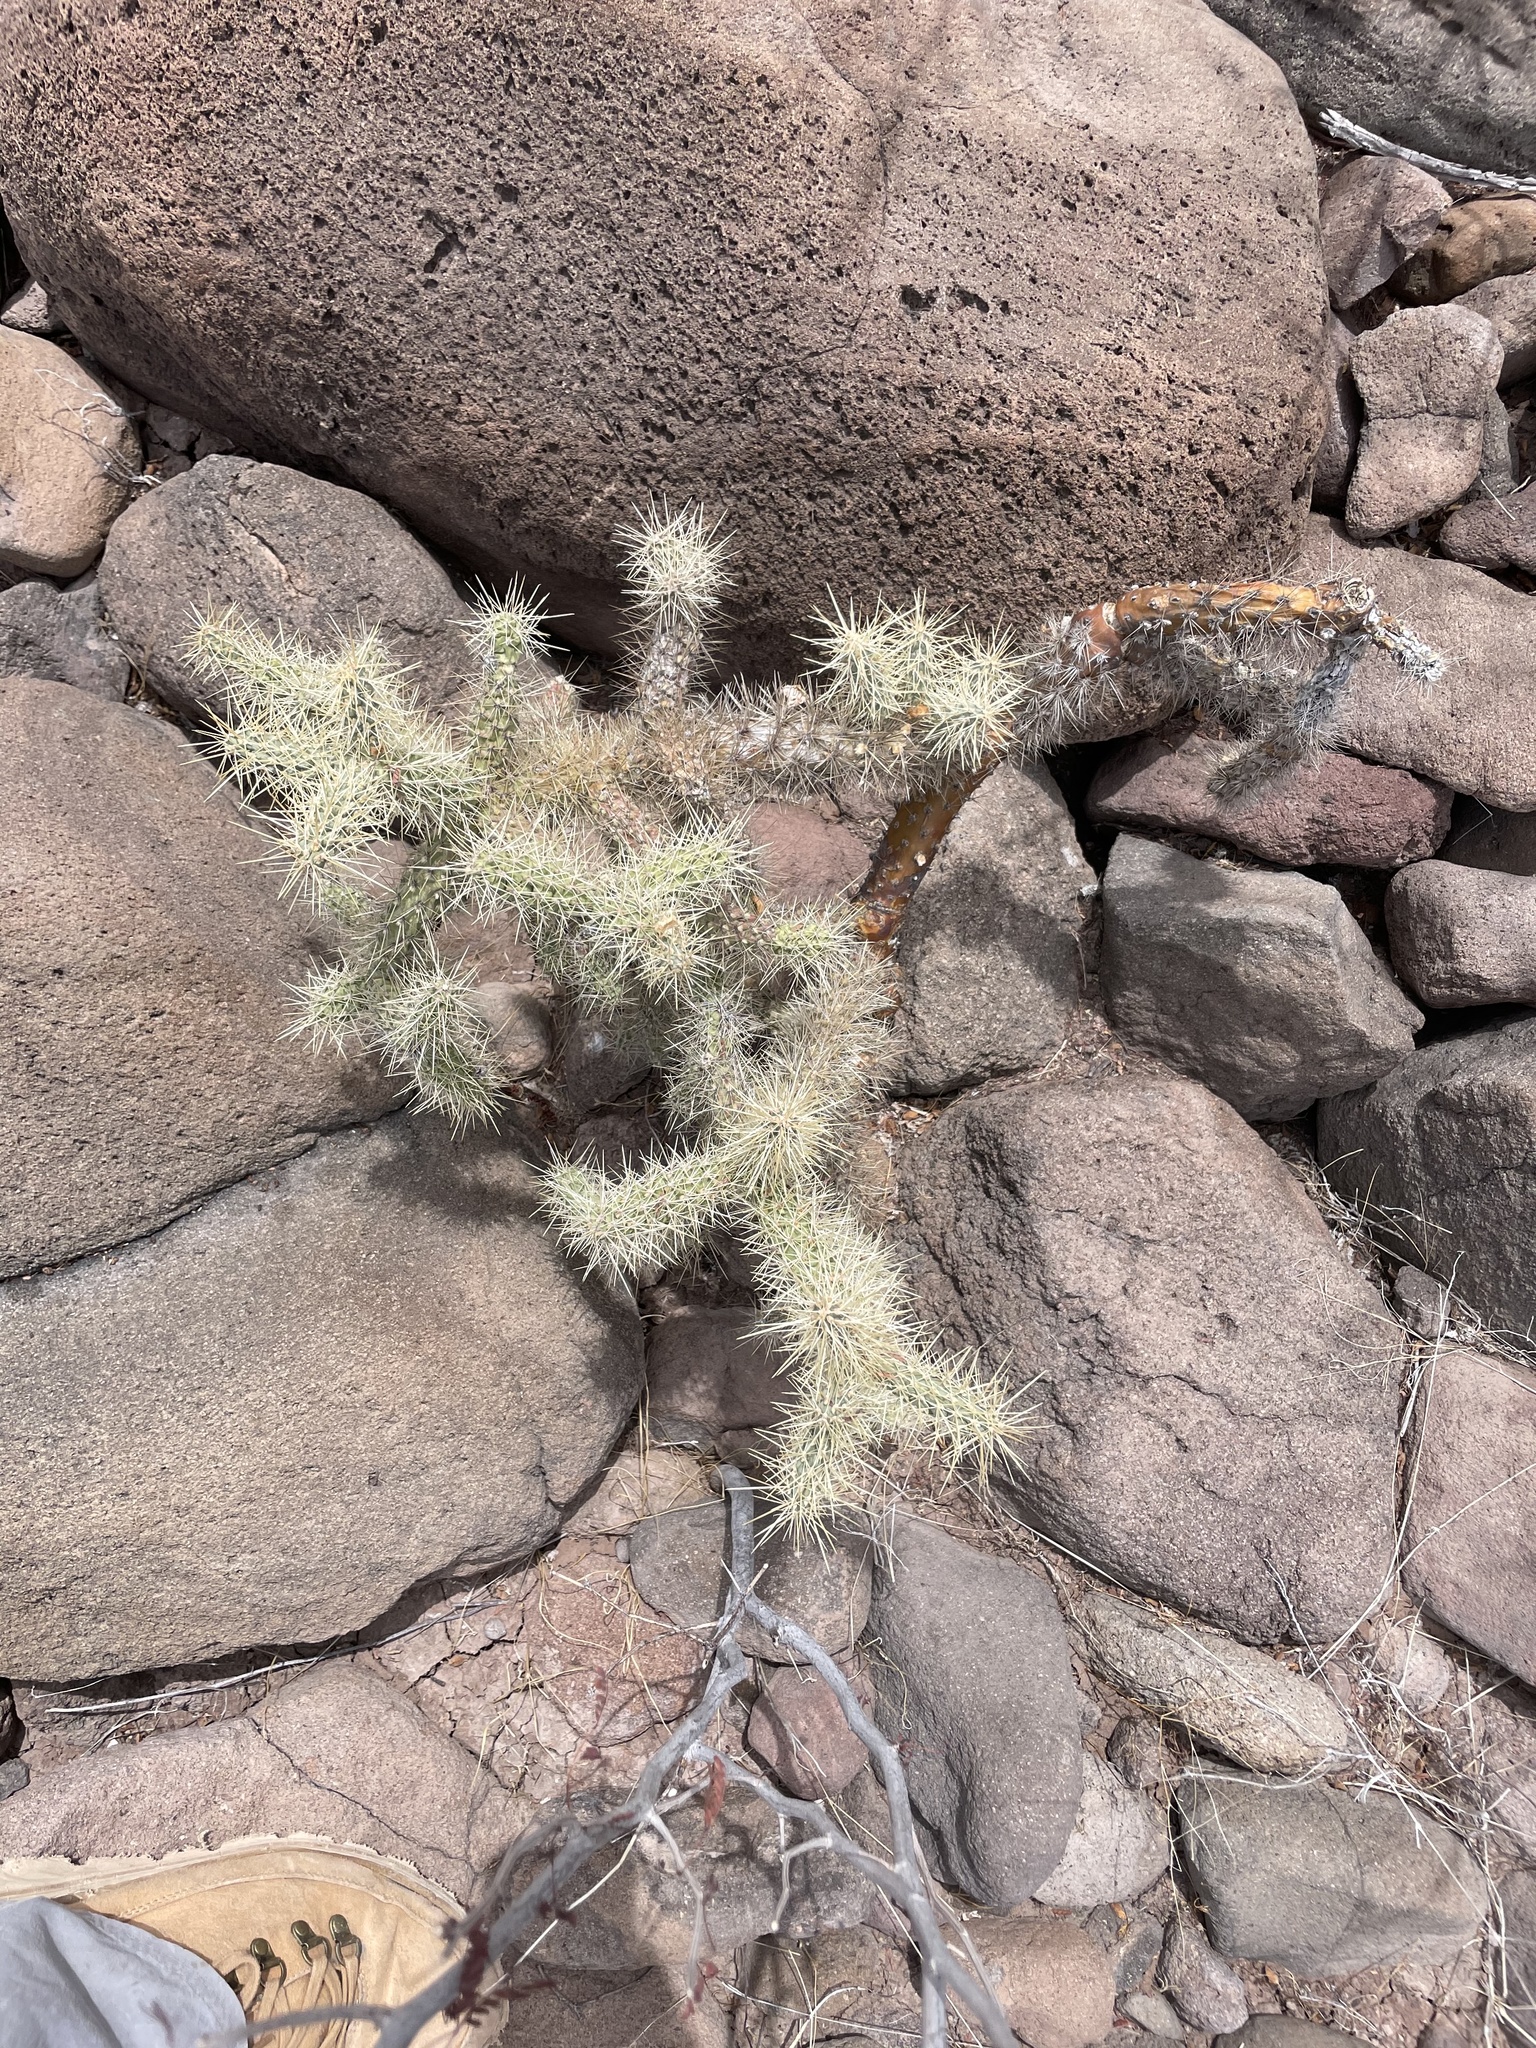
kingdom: Plantae
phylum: Tracheophyta
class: Magnoliopsida
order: Caryophyllales
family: Cactaceae
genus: Cylindropuntia
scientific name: Cylindropuntia alcahes
